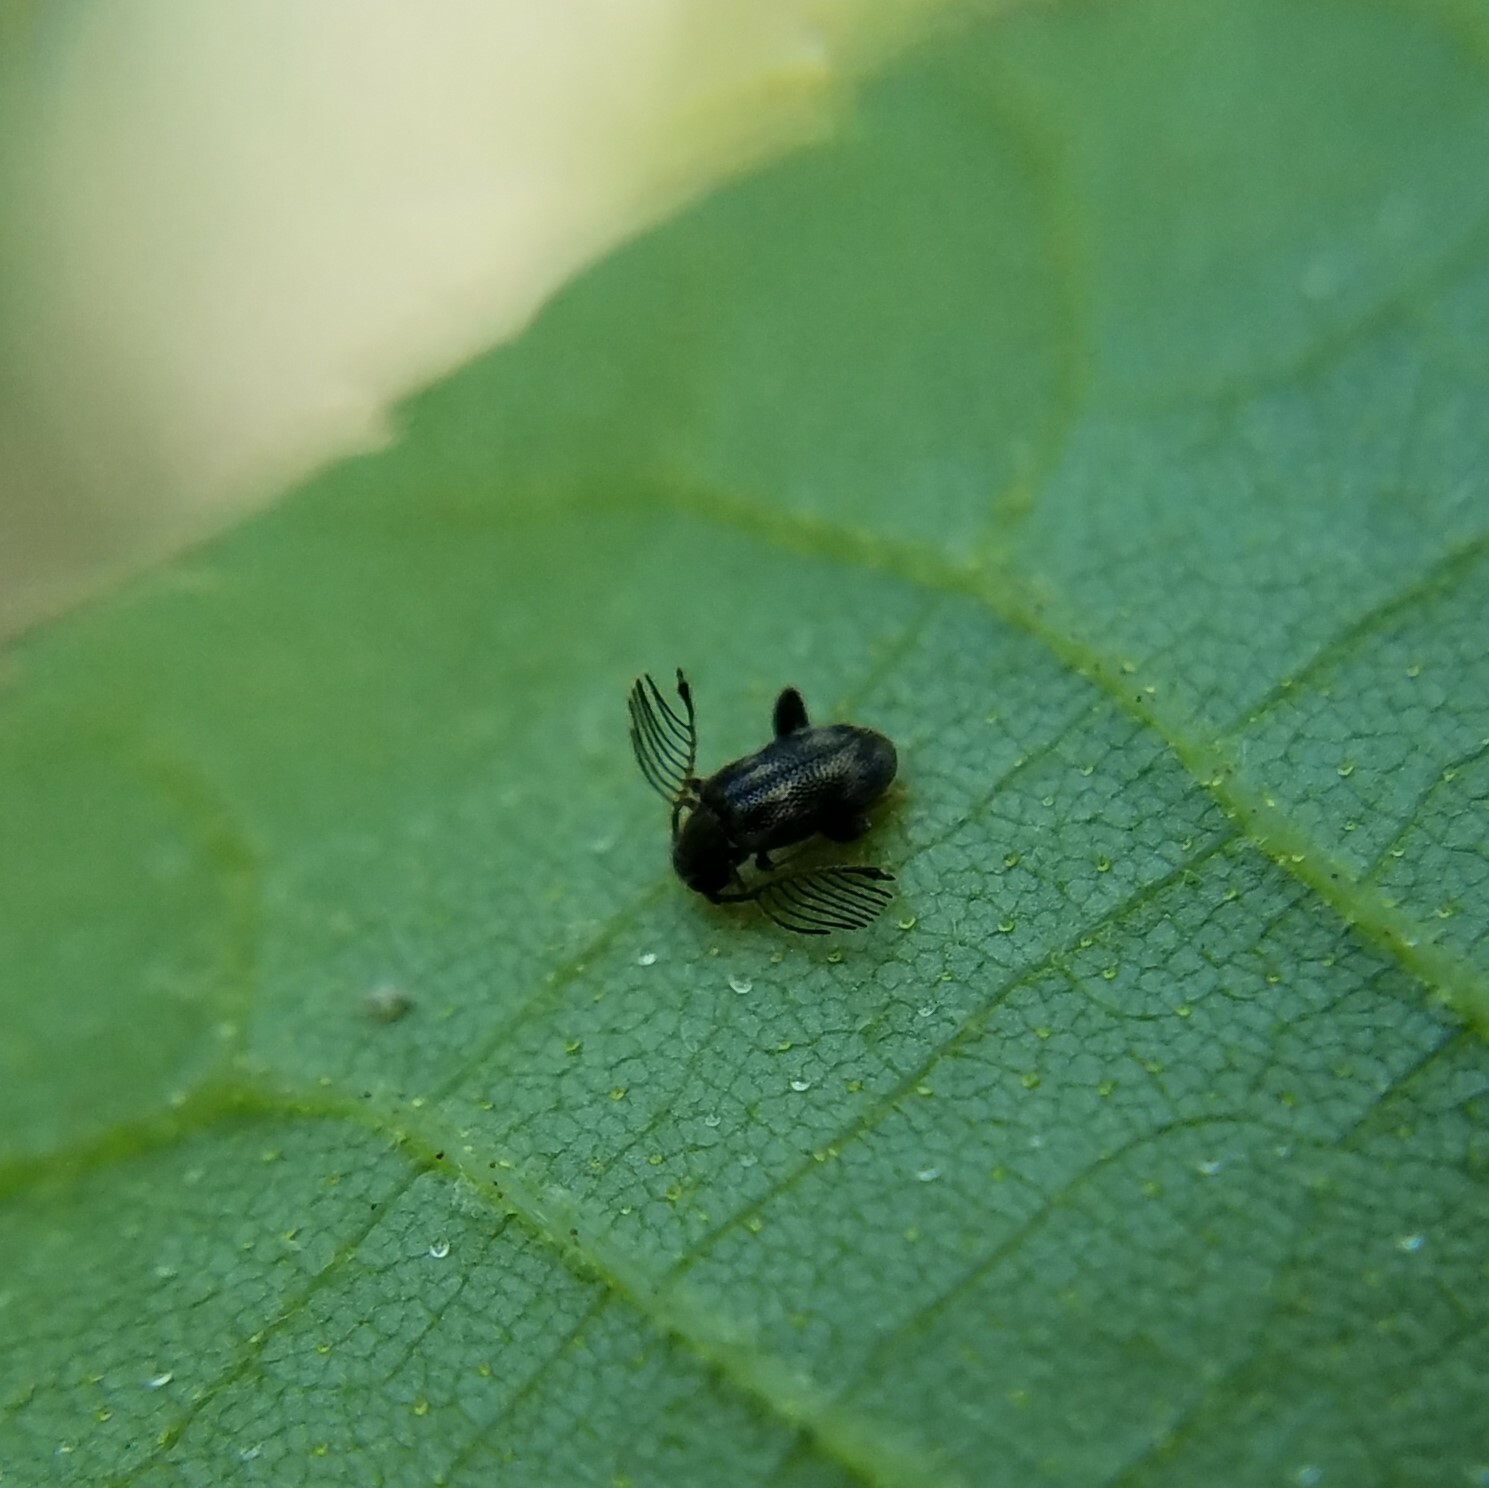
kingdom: Animalia
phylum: Arthropoda
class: Insecta
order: Coleoptera
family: Aderidae
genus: Emelinus
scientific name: Emelinus melsheimeri
